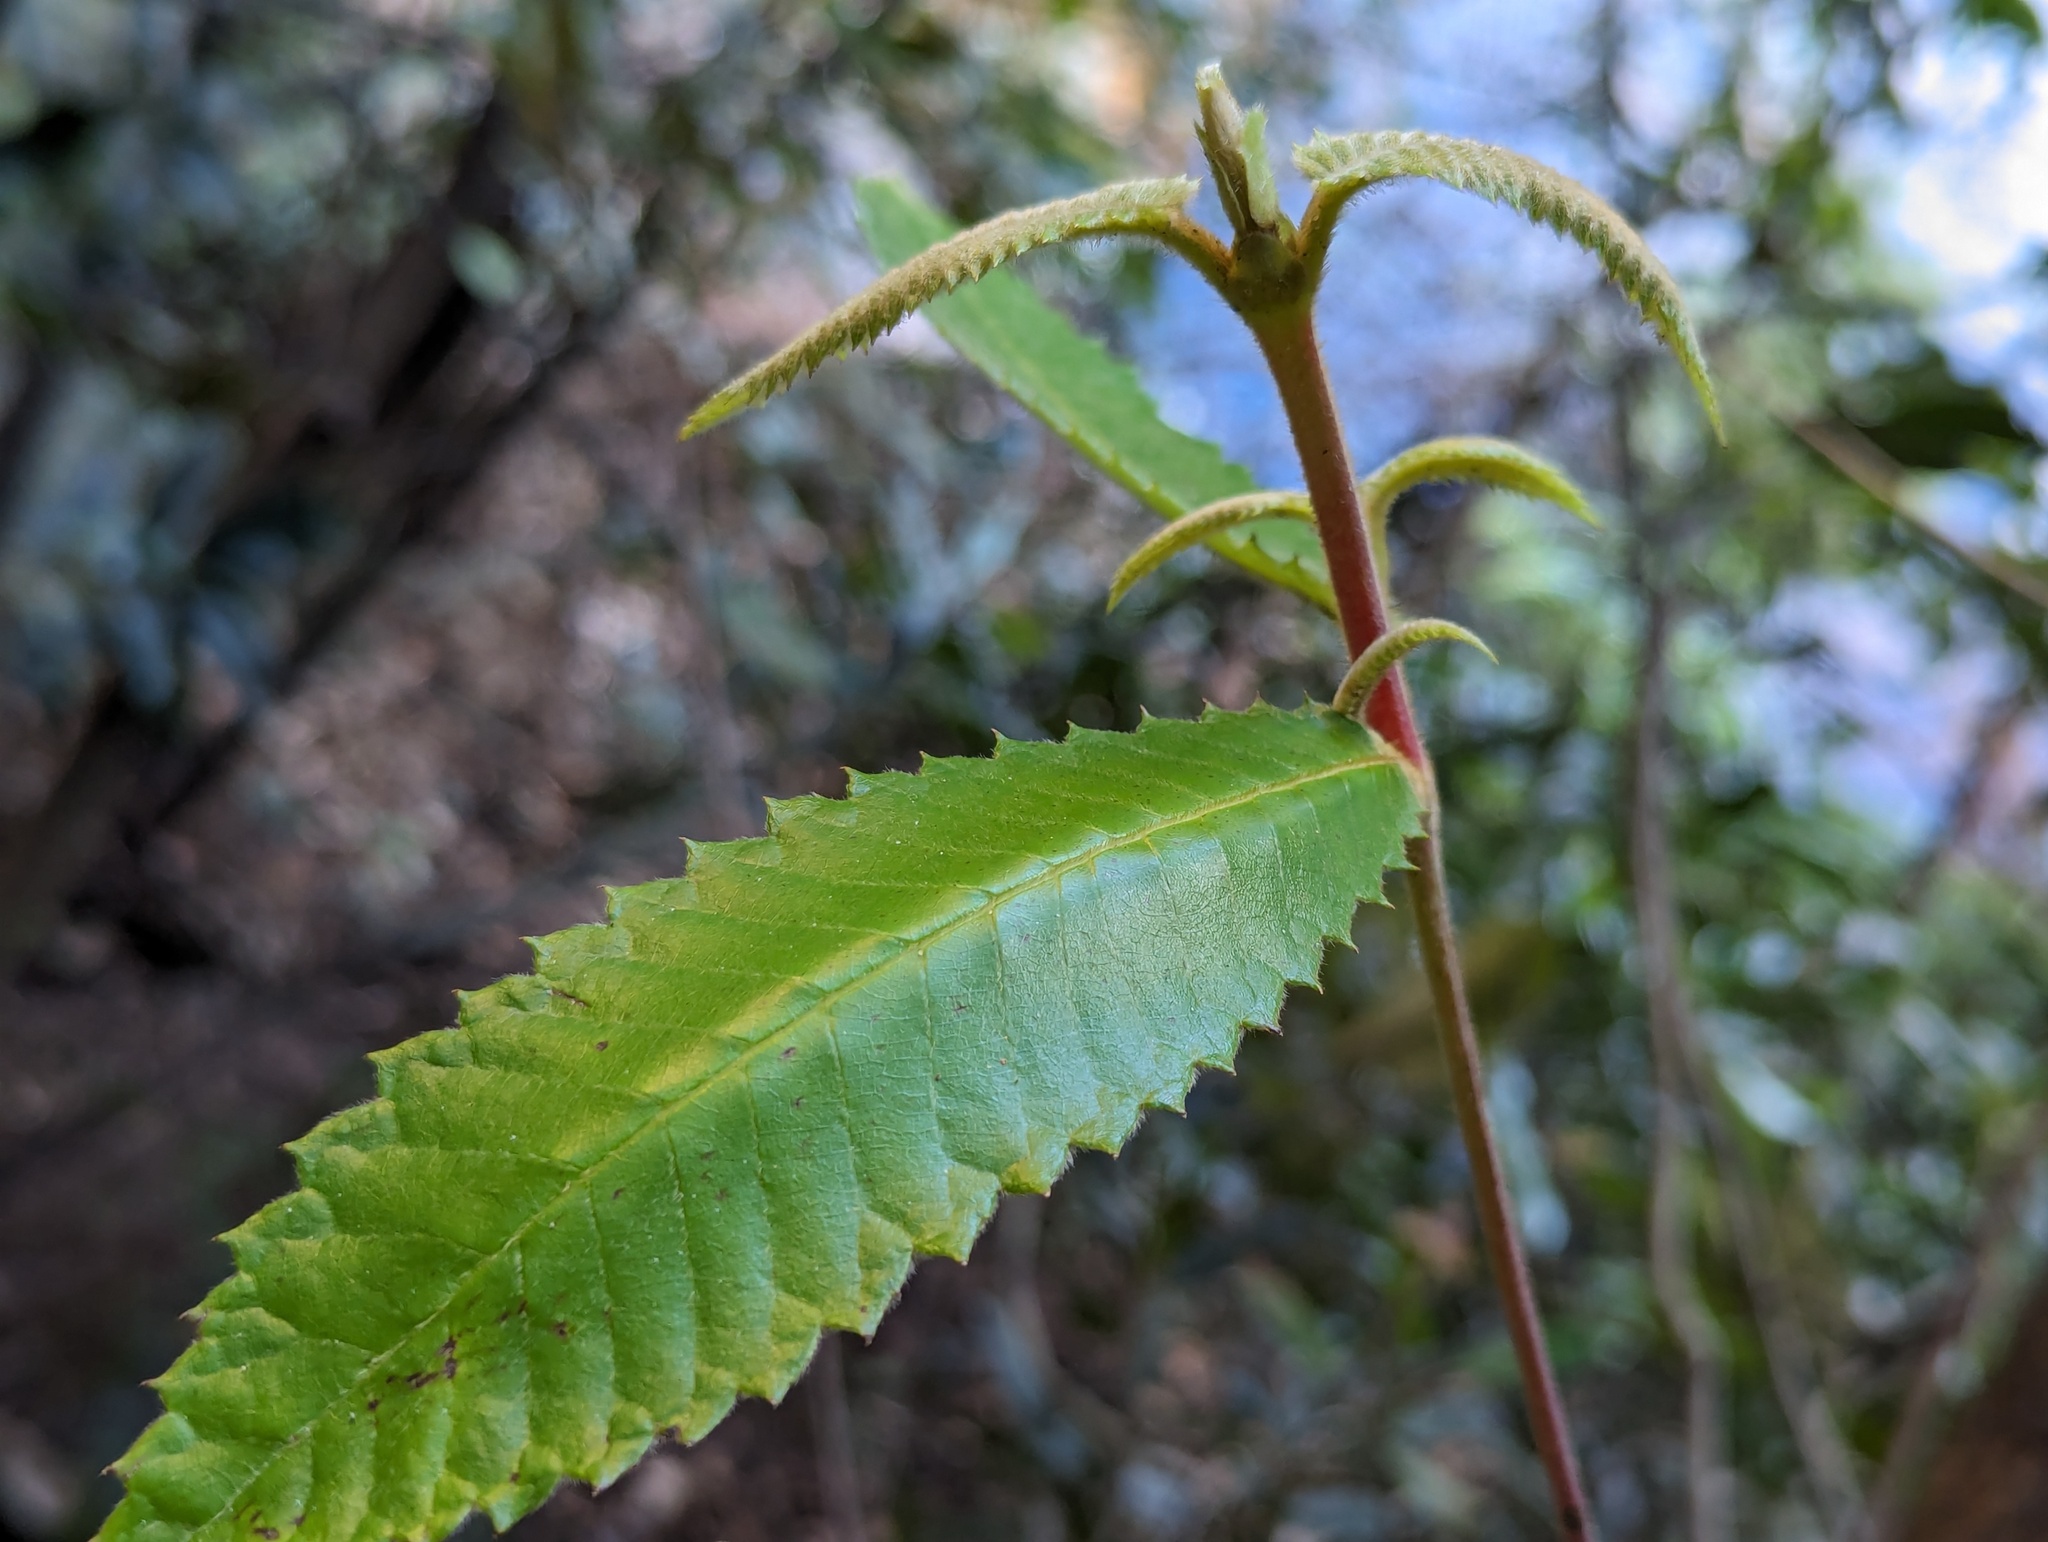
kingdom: Plantae
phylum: Tracheophyta
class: Magnoliopsida
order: Oxalidales
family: Cunoniaceae
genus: Callicoma
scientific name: Callicoma serratifolia
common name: Black wattle
